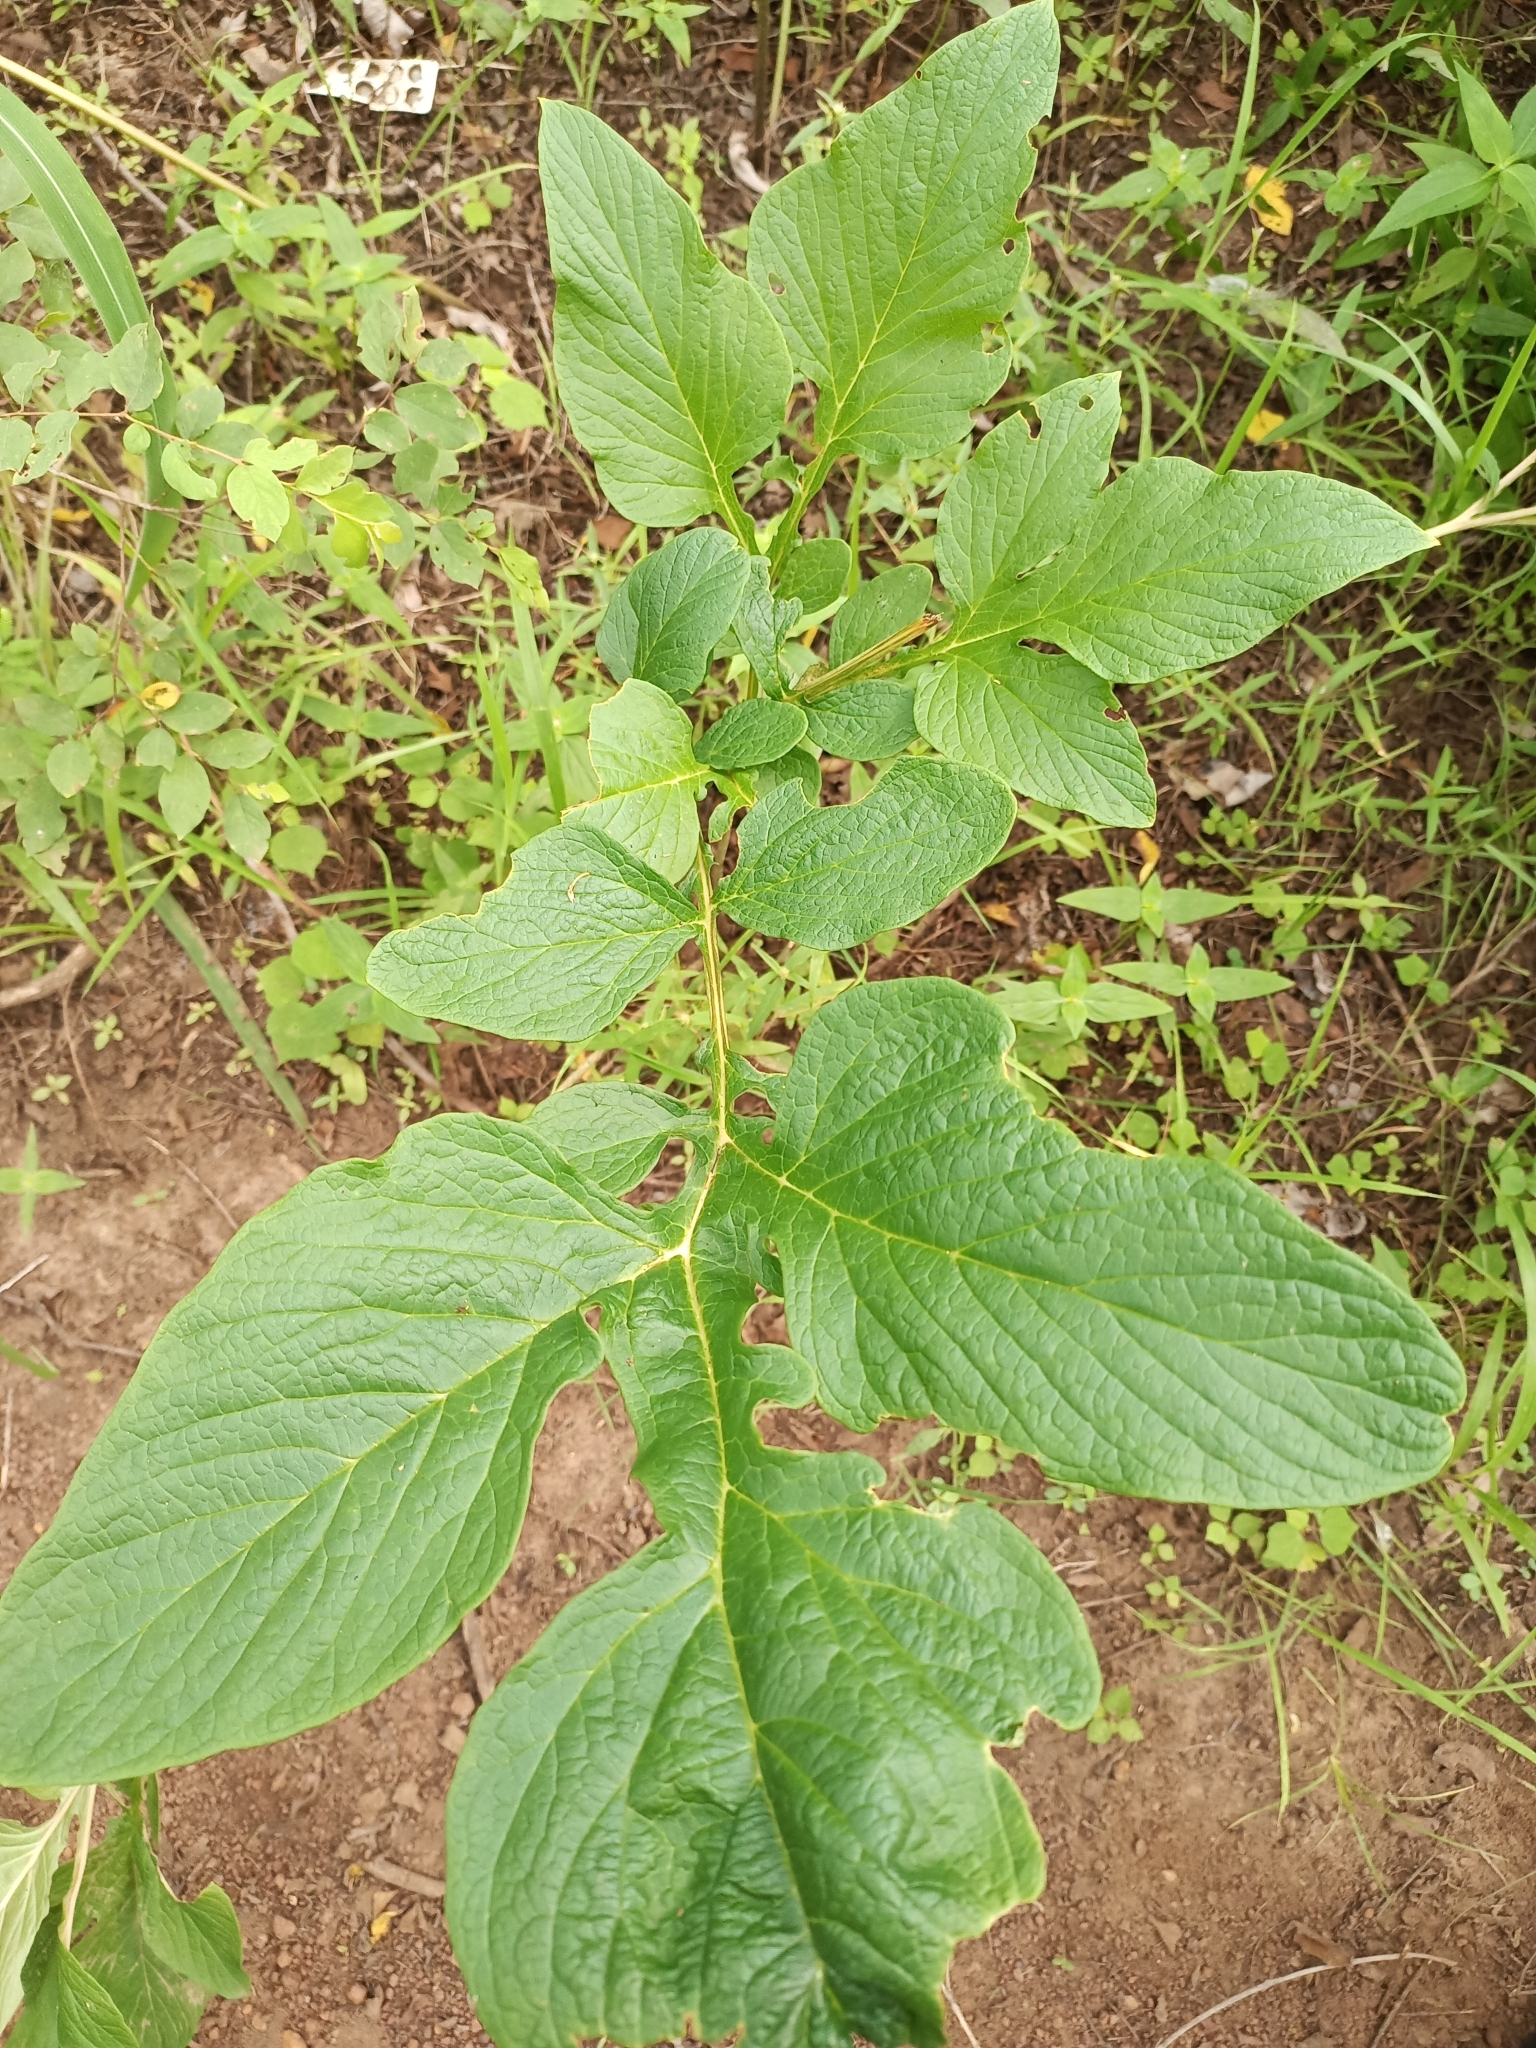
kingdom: Plantae
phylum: Tracheophyta
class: Liliopsida
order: Dioscoreales
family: Dioscoreaceae
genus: Tacca
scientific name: Tacca leontopetaloides
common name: Arrowroot
